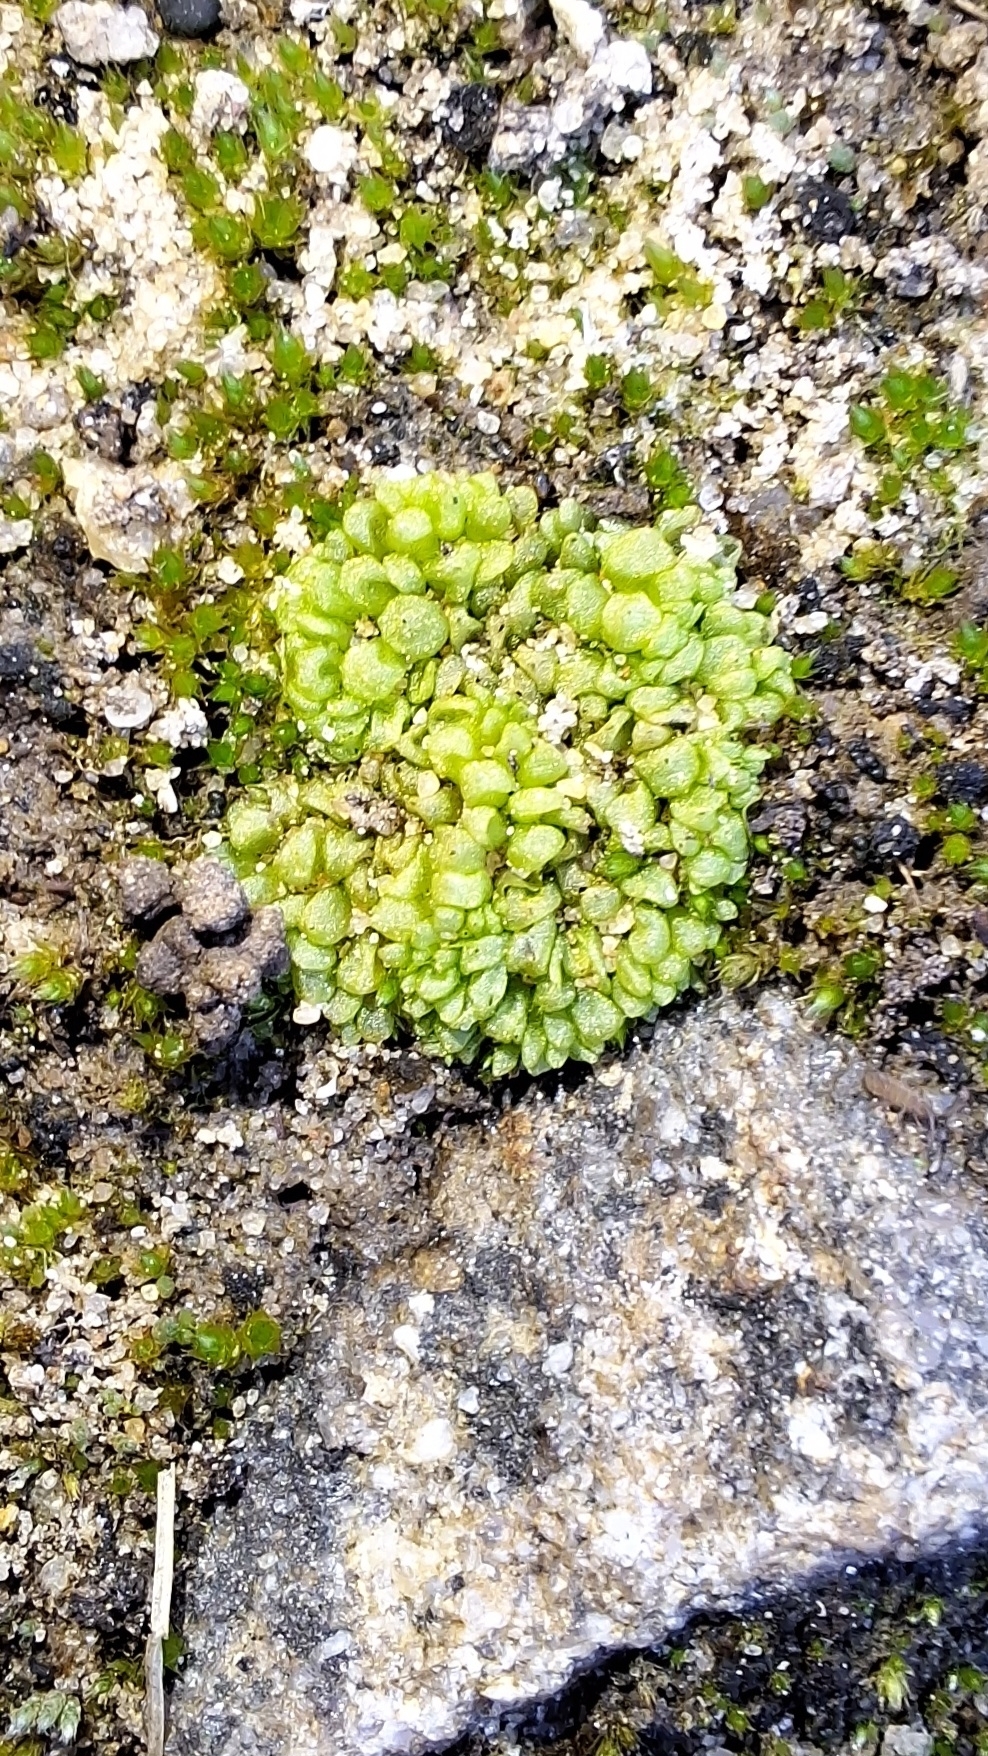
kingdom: Plantae
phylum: Marchantiophyta
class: Marchantiopsida
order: Sphaerocarpales
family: Sphaerocarpaceae
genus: Sphaerocarpos
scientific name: Sphaerocarpos texanus
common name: Texas balloonwort
